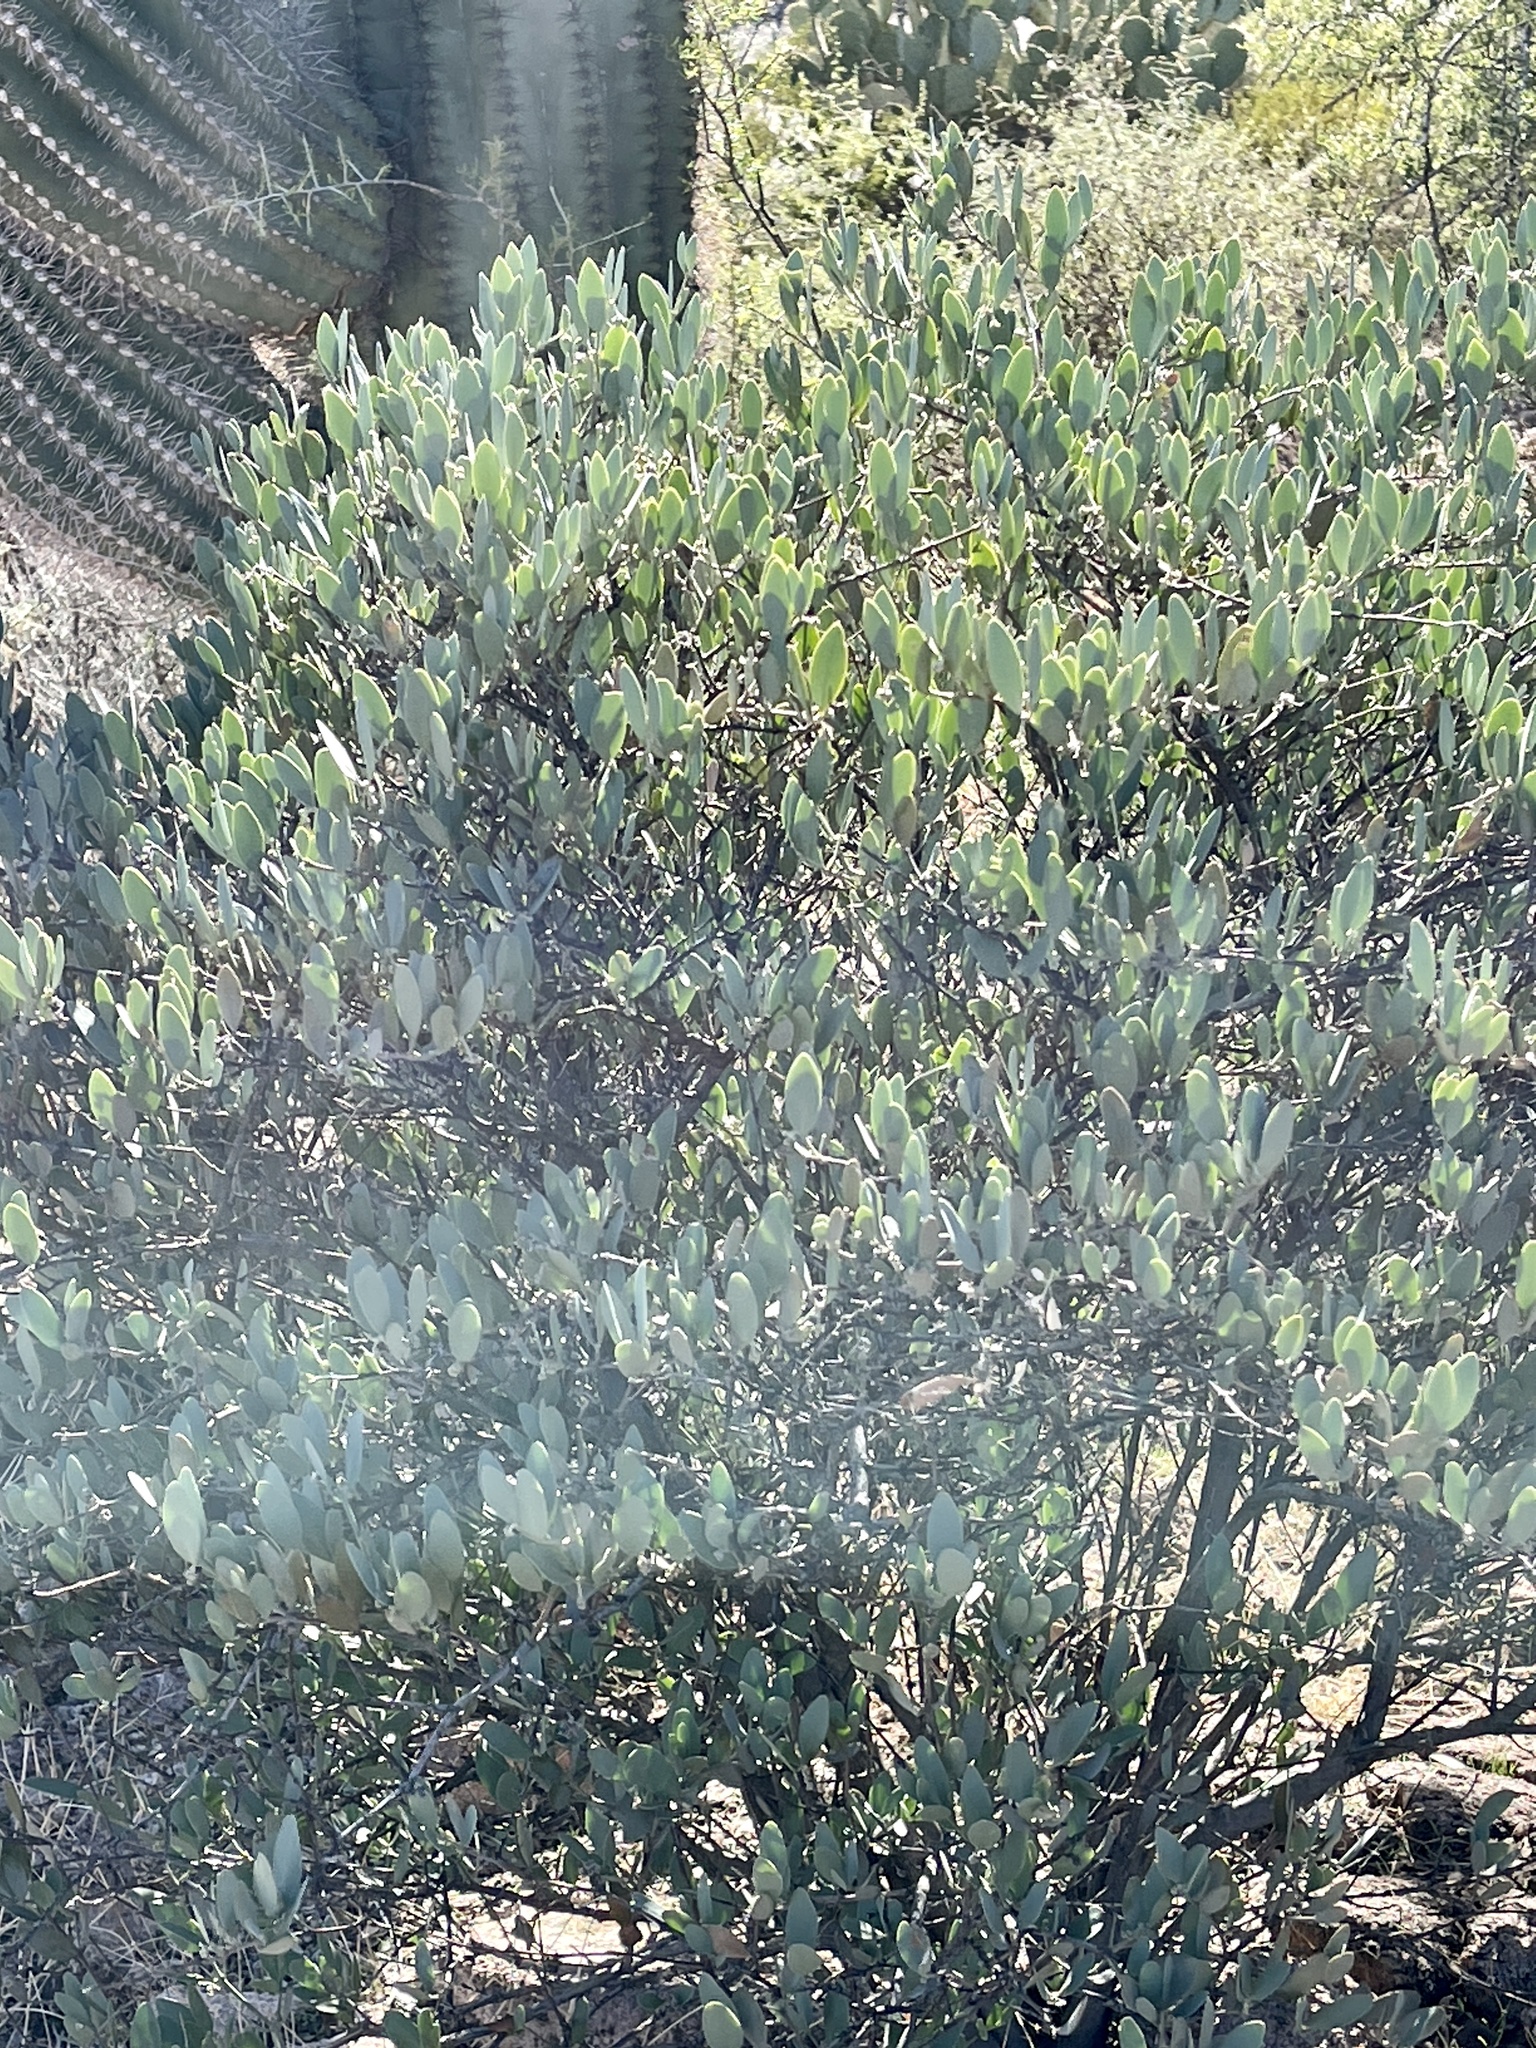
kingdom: Plantae
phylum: Tracheophyta
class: Magnoliopsida
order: Caryophyllales
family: Simmondsiaceae
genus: Simmondsia
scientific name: Simmondsia chinensis
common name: Jojoba
